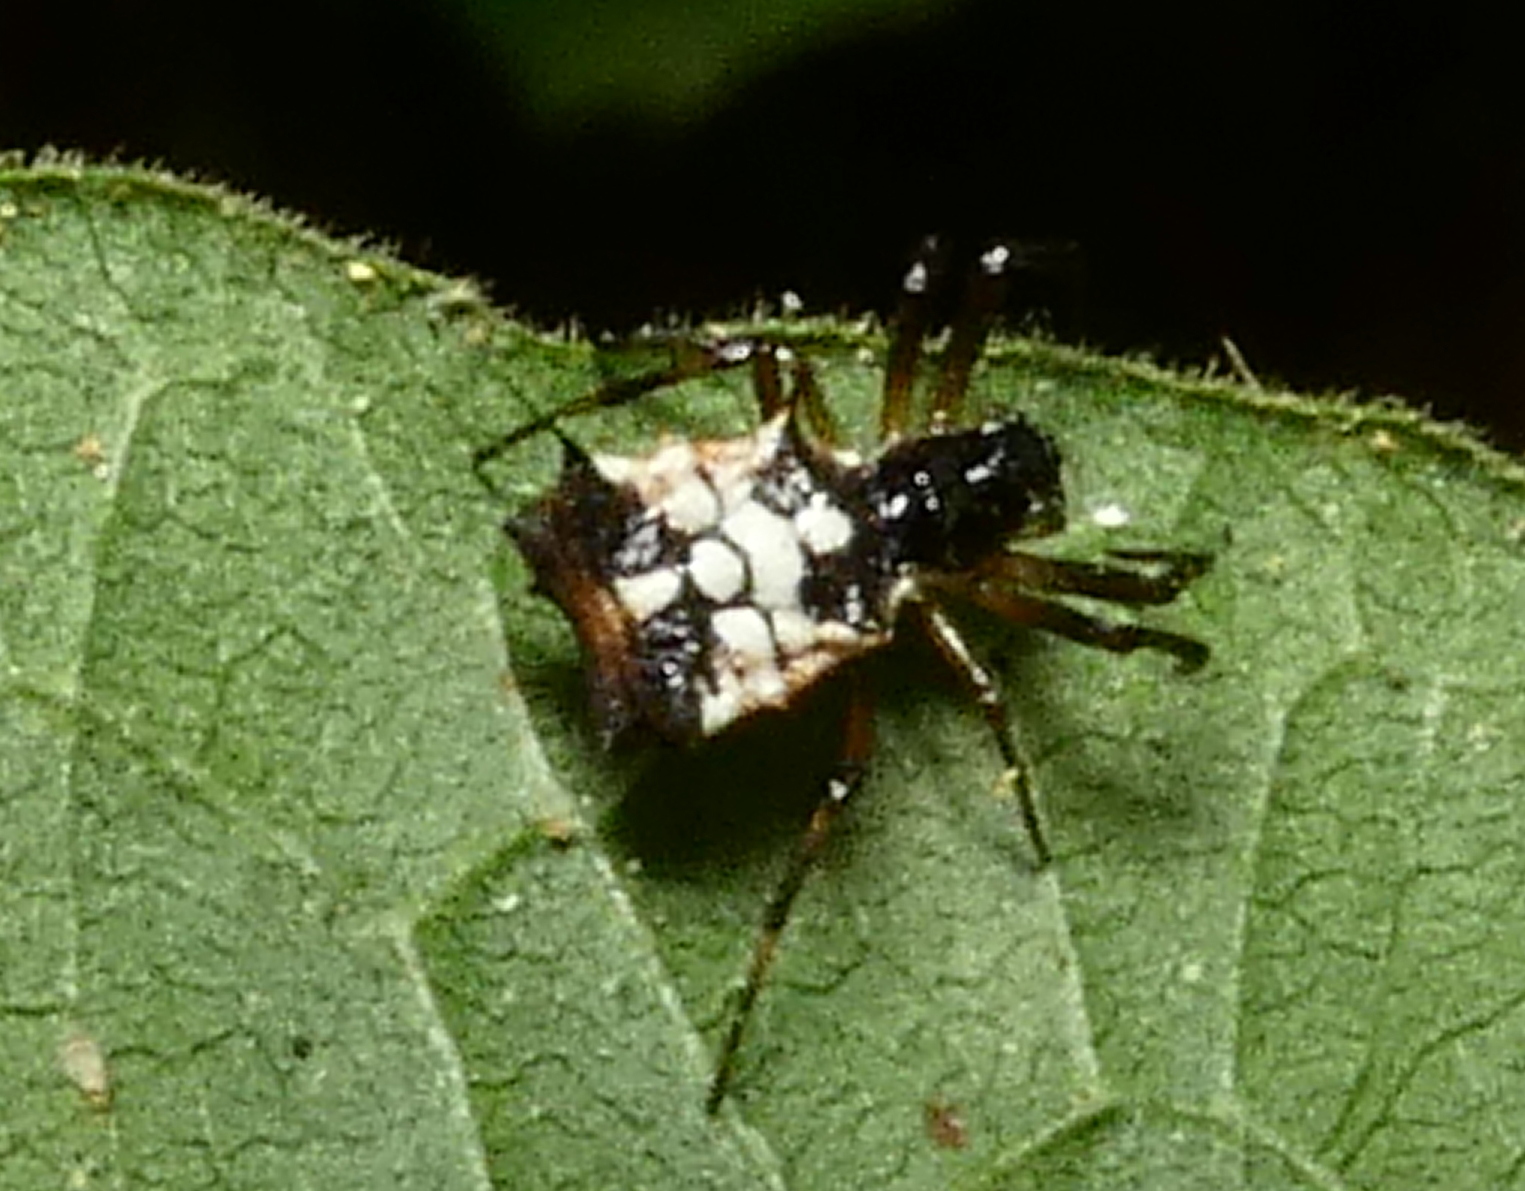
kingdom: Animalia
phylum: Arthropoda
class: Arachnida
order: Araneae
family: Araneidae
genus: Micrathena
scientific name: Micrathena picta
